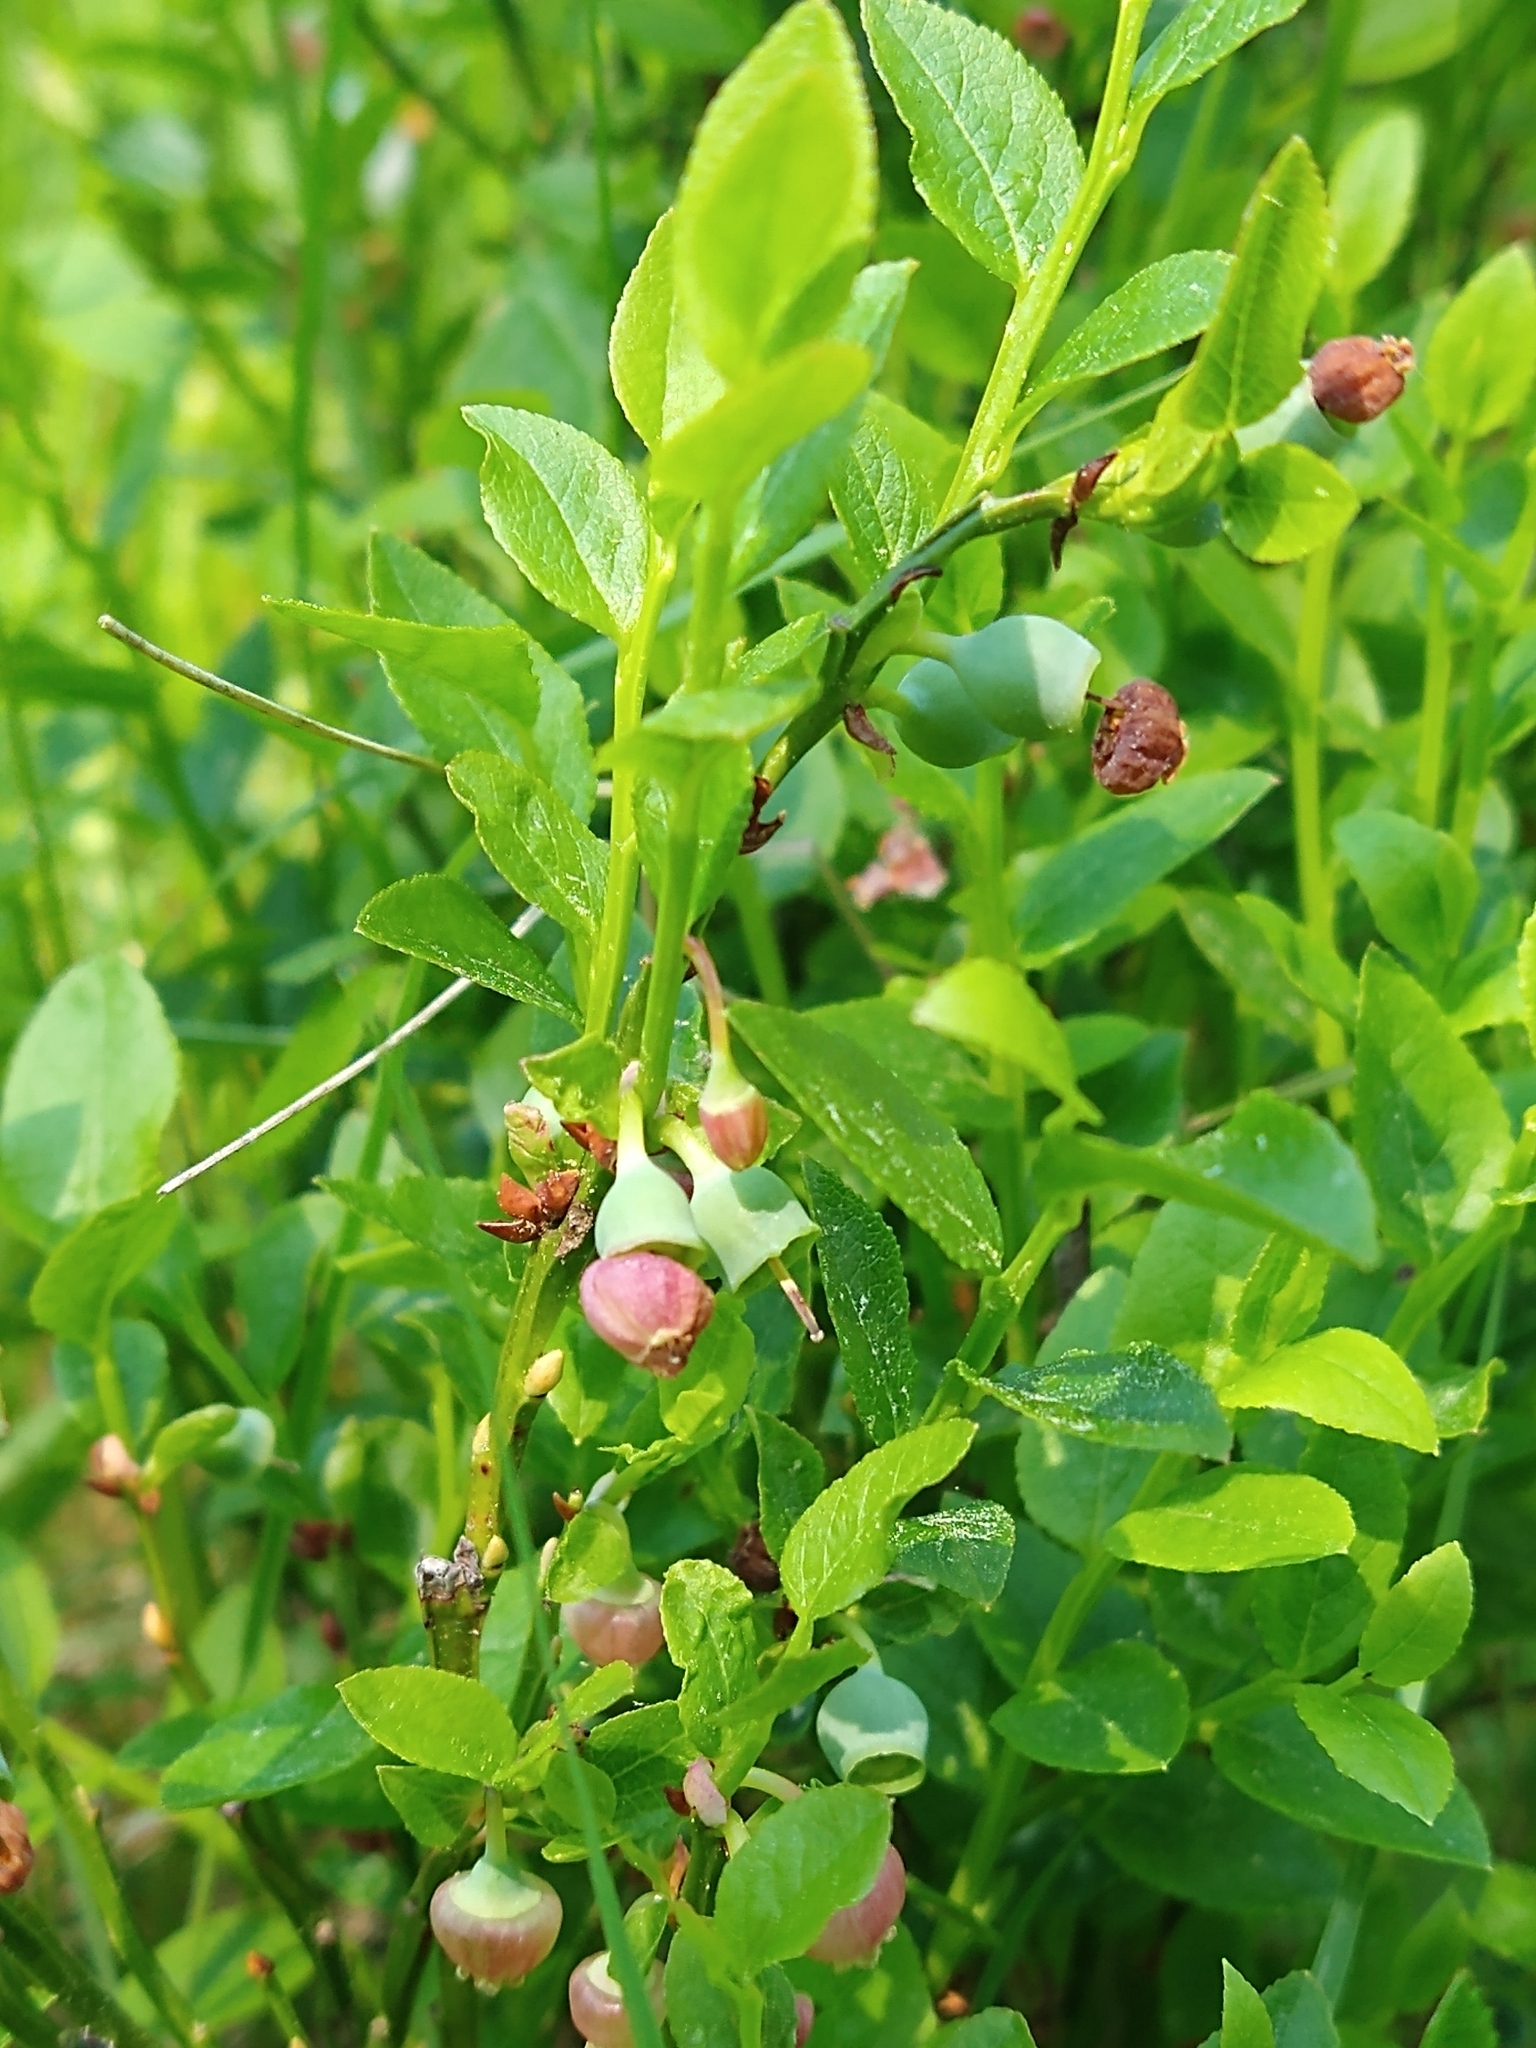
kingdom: Plantae
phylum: Tracheophyta
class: Magnoliopsida
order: Ericales
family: Ericaceae
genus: Vaccinium
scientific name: Vaccinium myrtillus
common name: Bilberry
